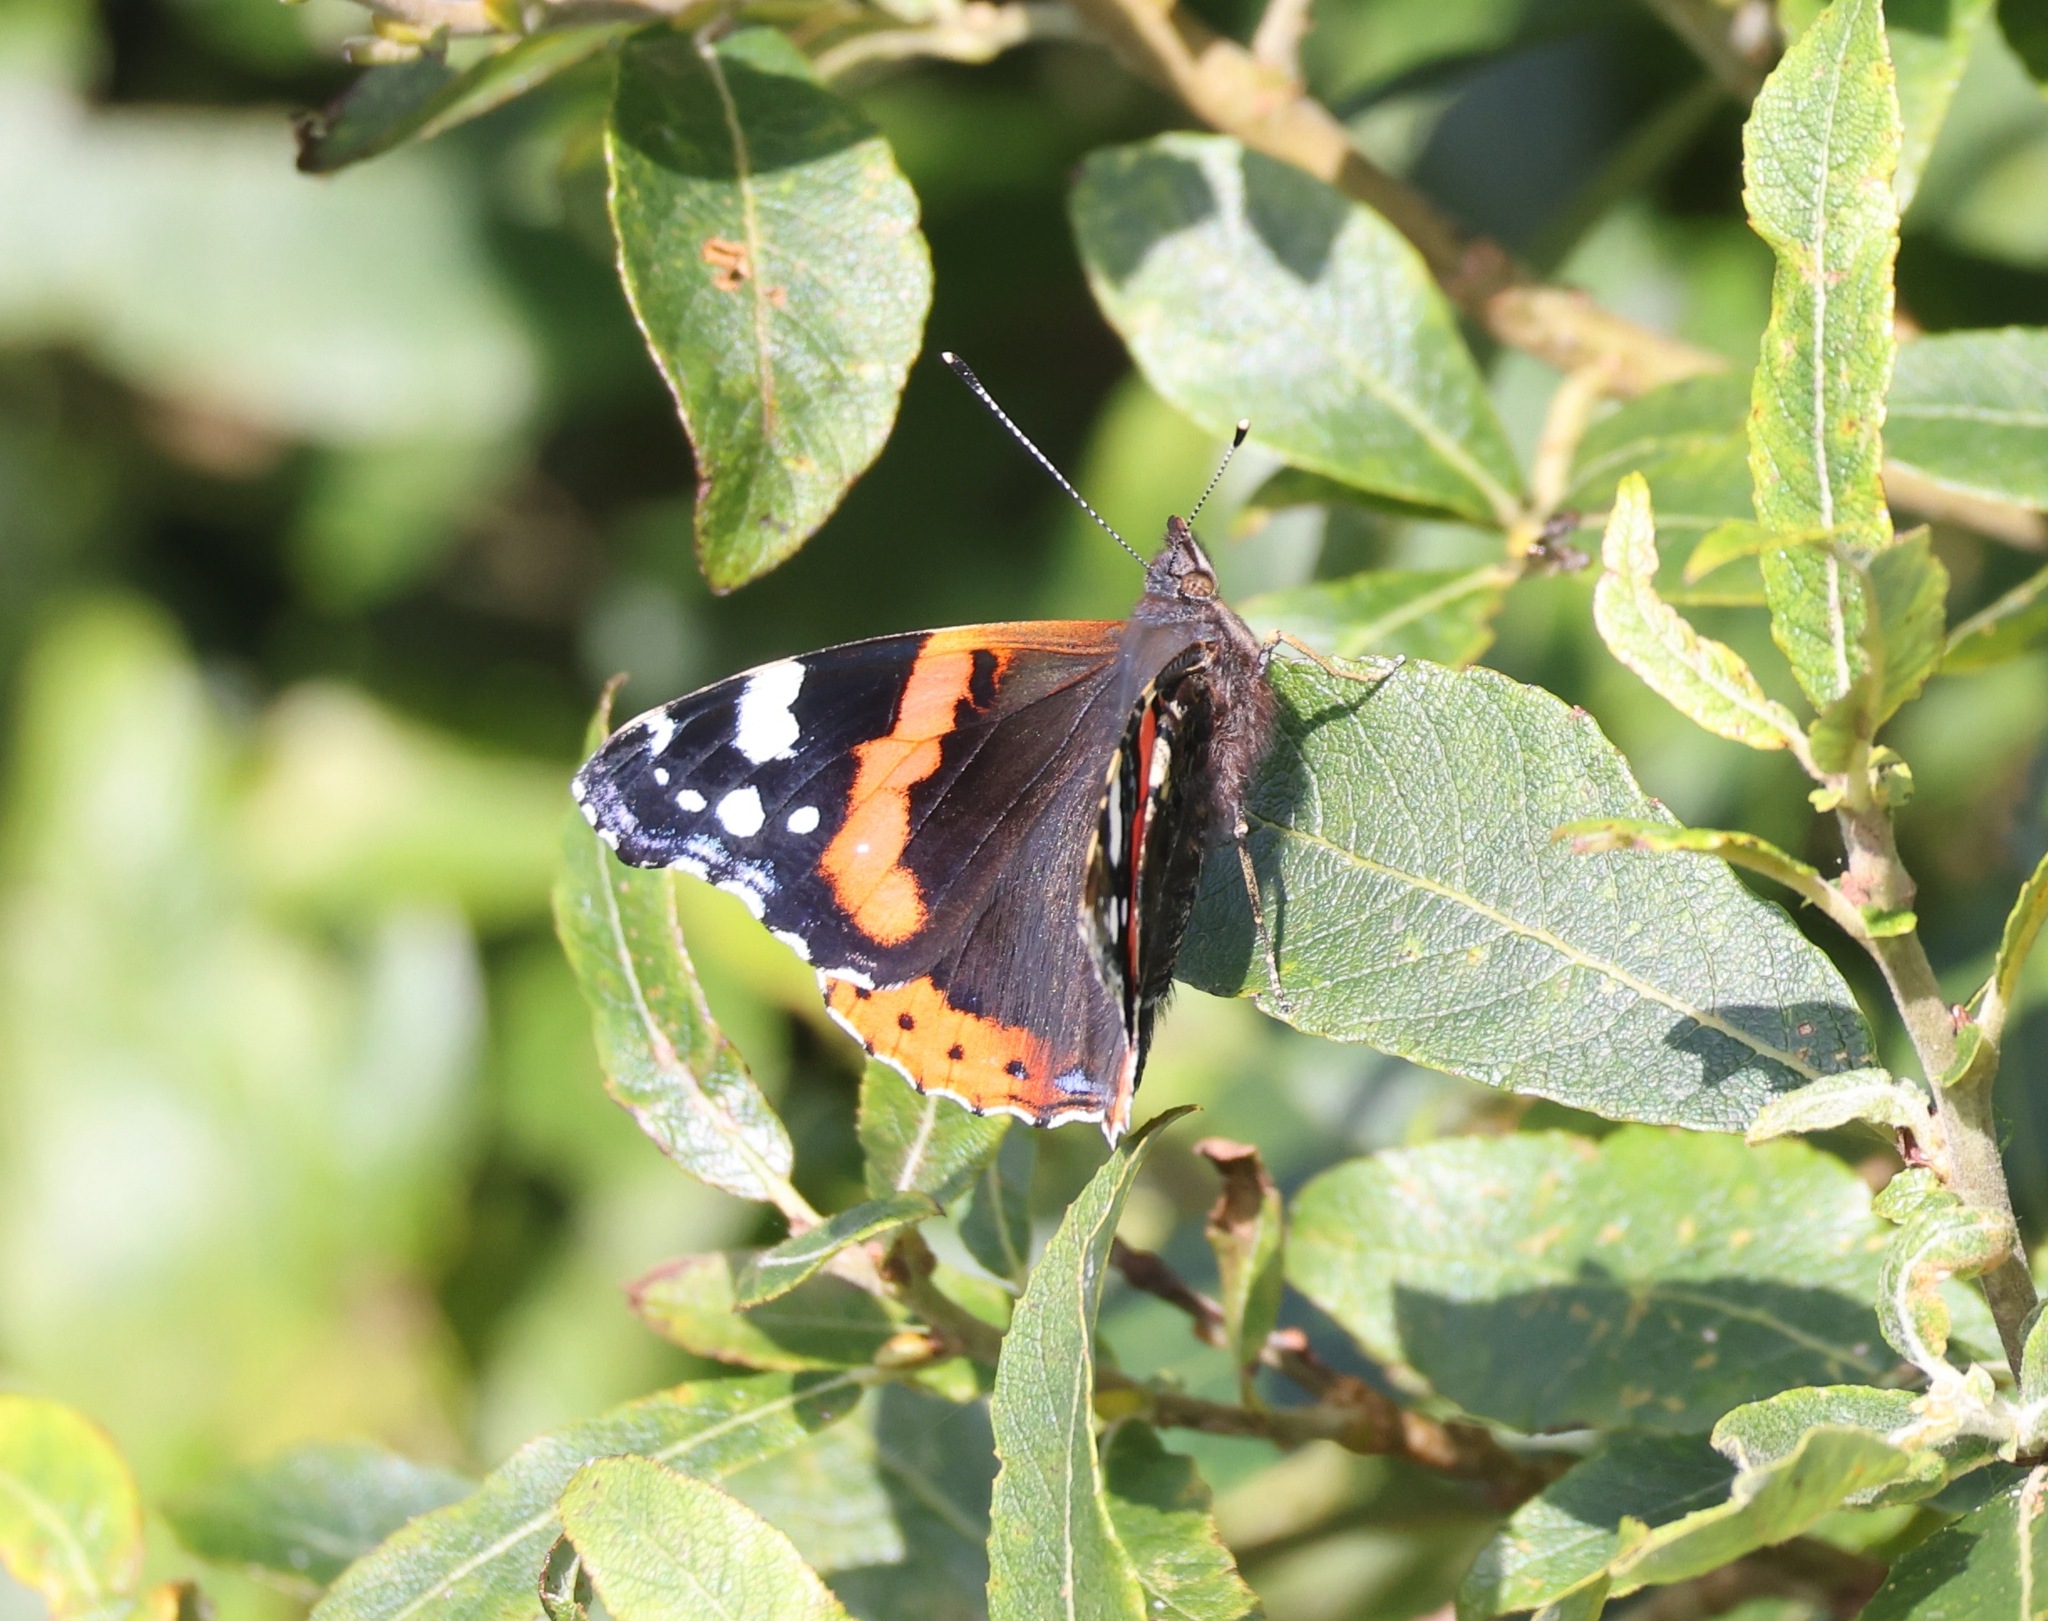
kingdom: Animalia
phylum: Arthropoda
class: Insecta
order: Lepidoptera
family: Nymphalidae
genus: Vanessa
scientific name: Vanessa atalanta
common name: Red admiral
